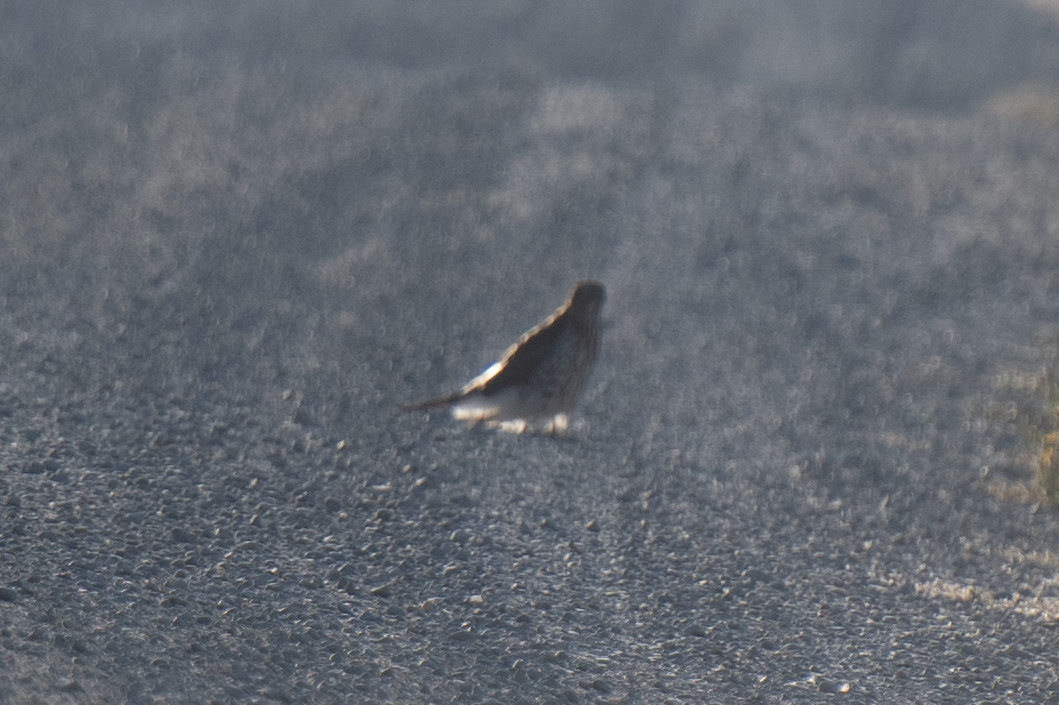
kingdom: Animalia
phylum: Chordata
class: Aves
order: Accipitriformes
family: Accipitridae
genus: Accipiter
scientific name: Accipiter cooperii
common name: Cooper's hawk
